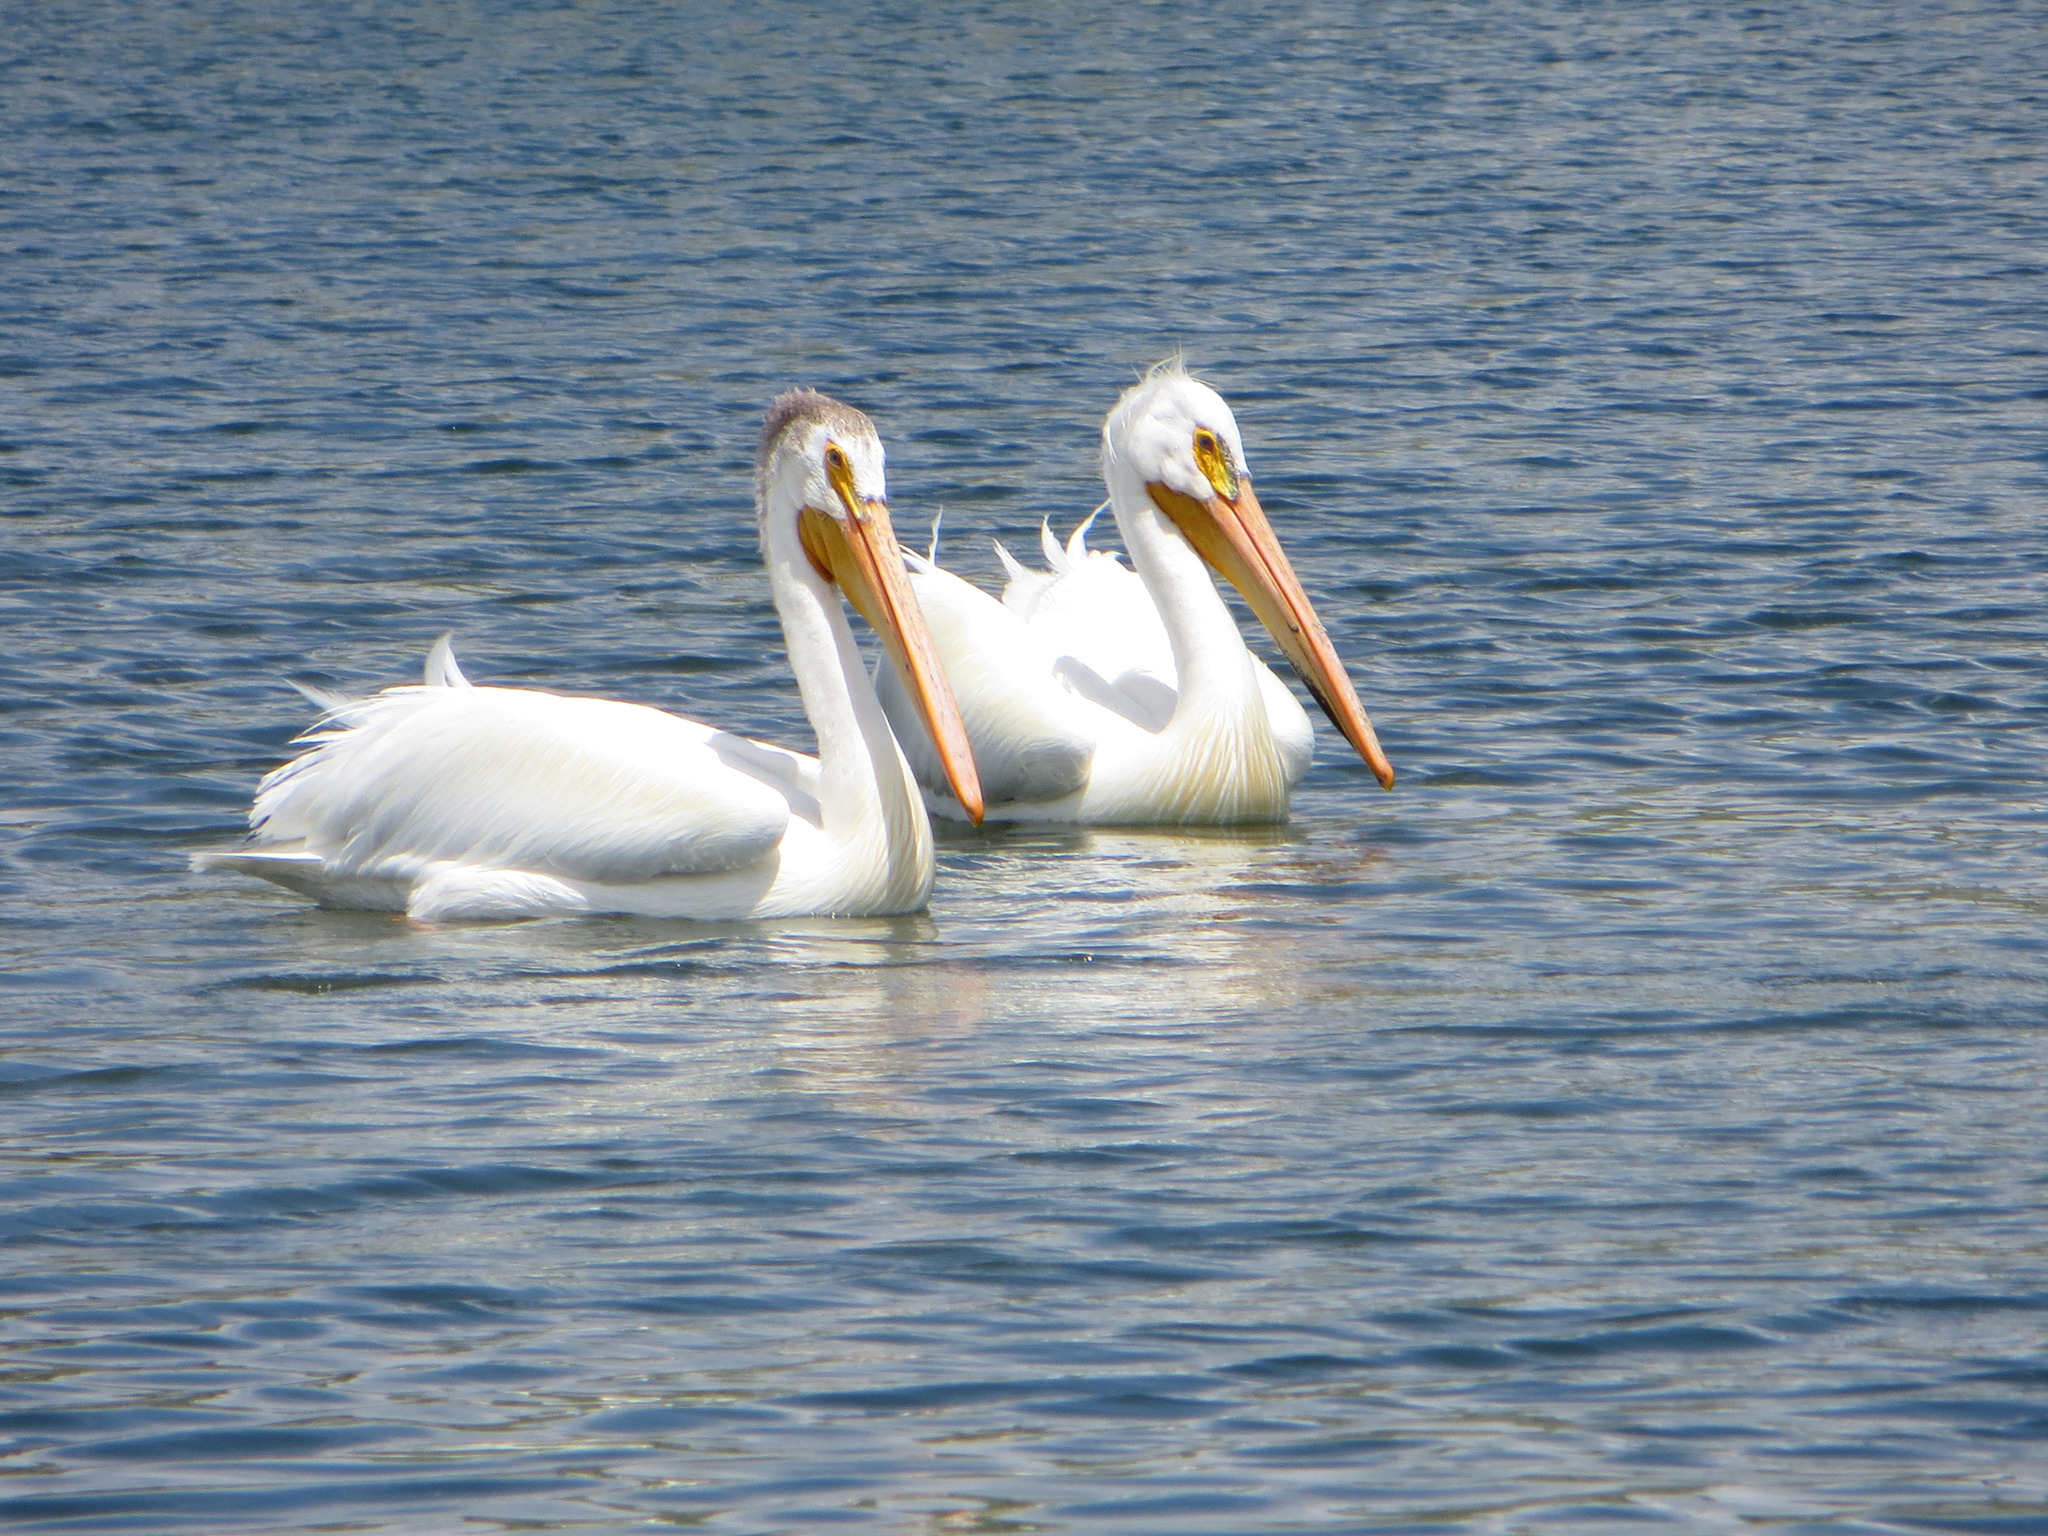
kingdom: Animalia
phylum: Chordata
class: Aves
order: Pelecaniformes
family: Pelecanidae
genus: Pelecanus
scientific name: Pelecanus erythrorhynchos
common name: American white pelican
